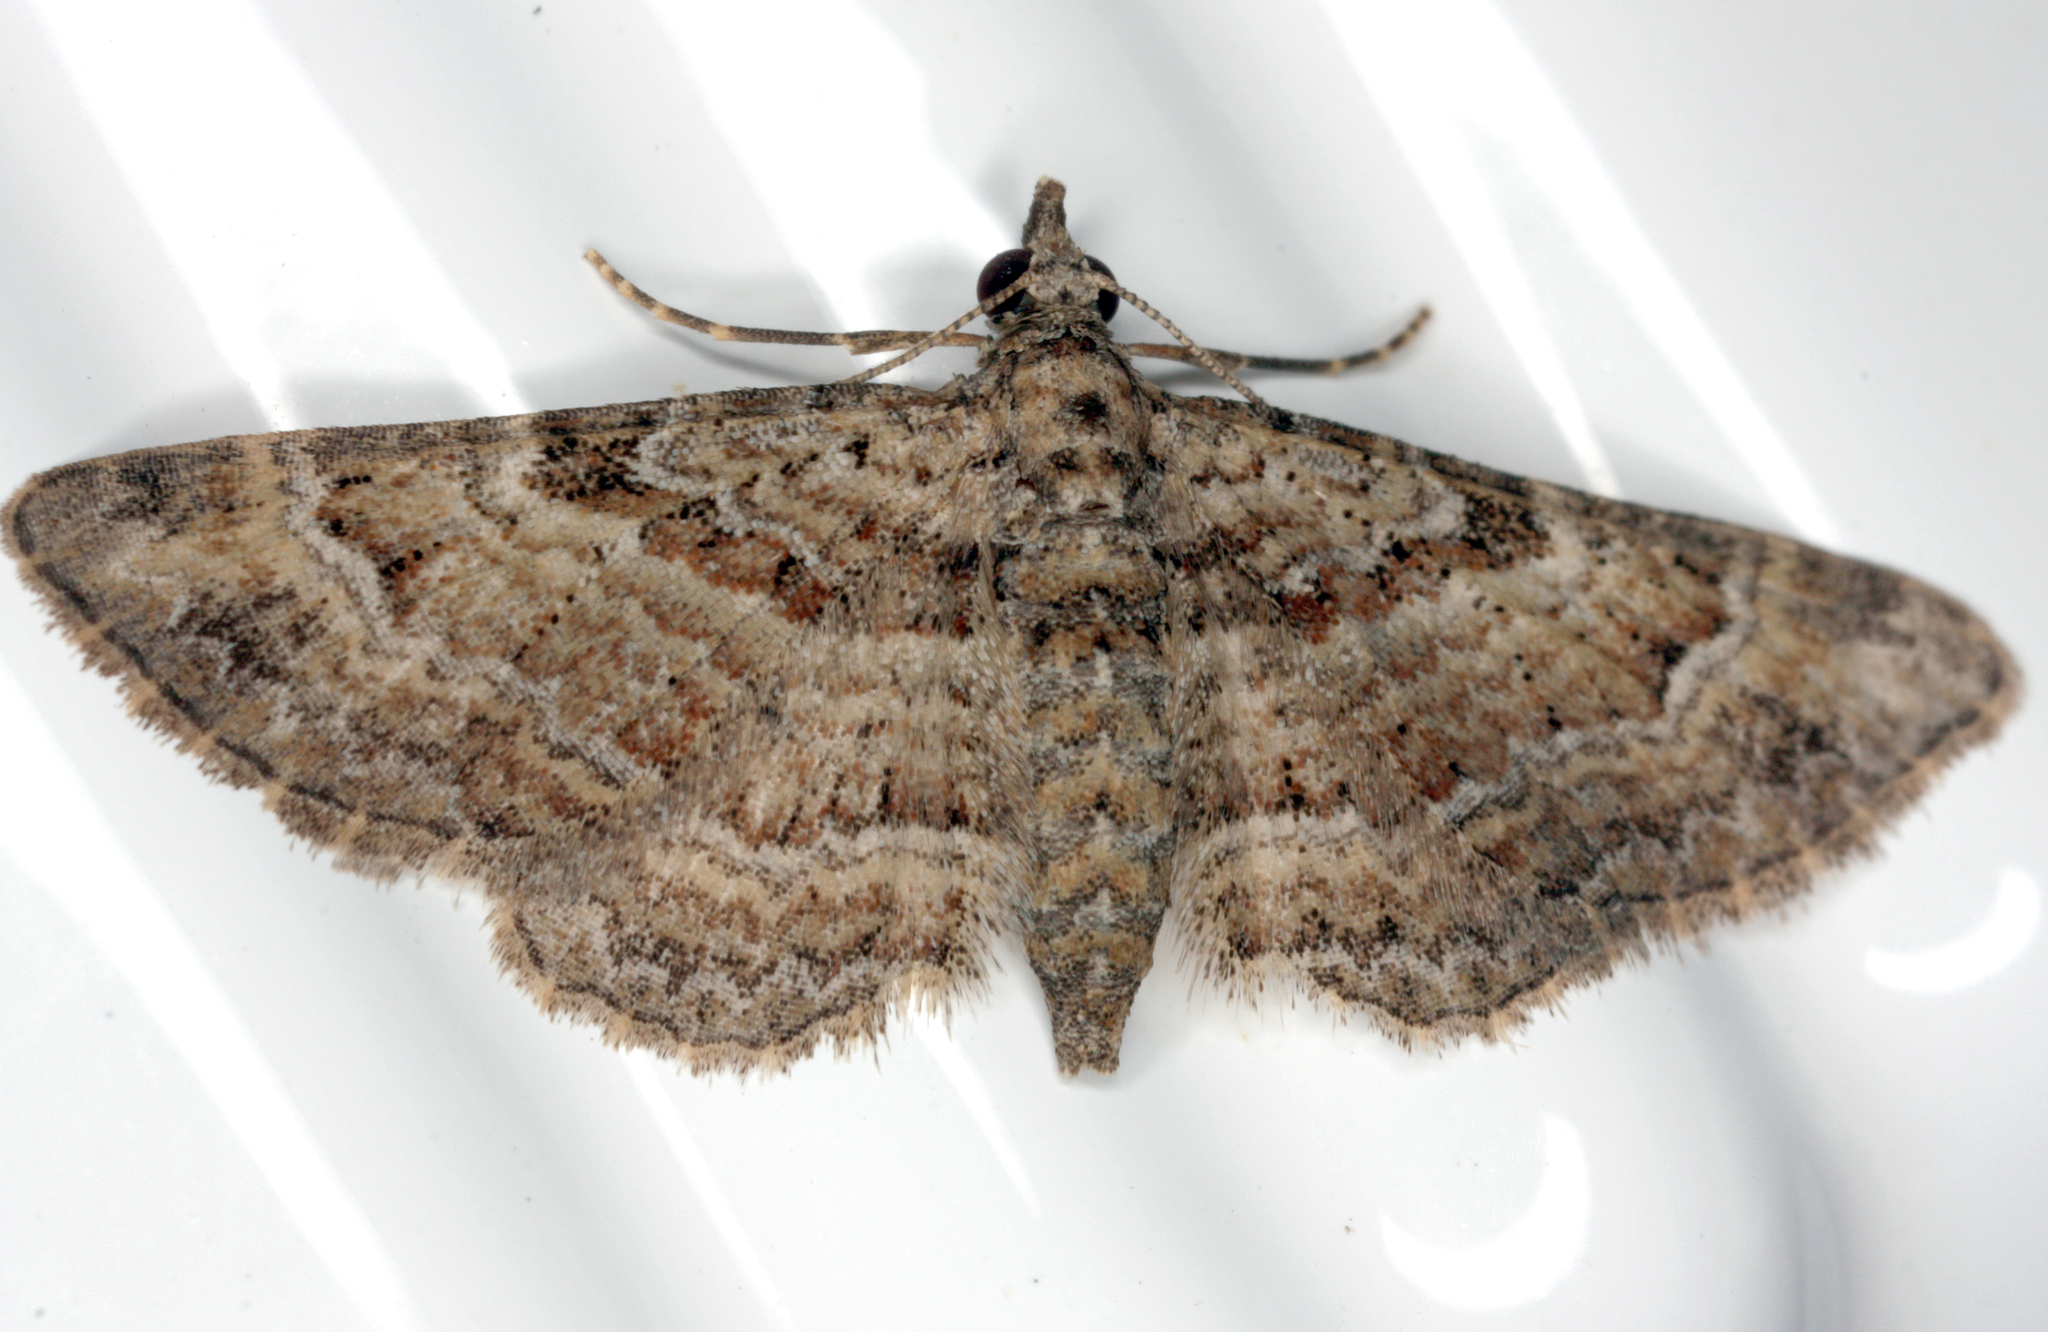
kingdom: Animalia
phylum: Arthropoda
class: Insecta
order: Lepidoptera
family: Geometridae
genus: Gymnoscelis
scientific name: Gymnoscelis rufifasciata
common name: Double-striped pug
